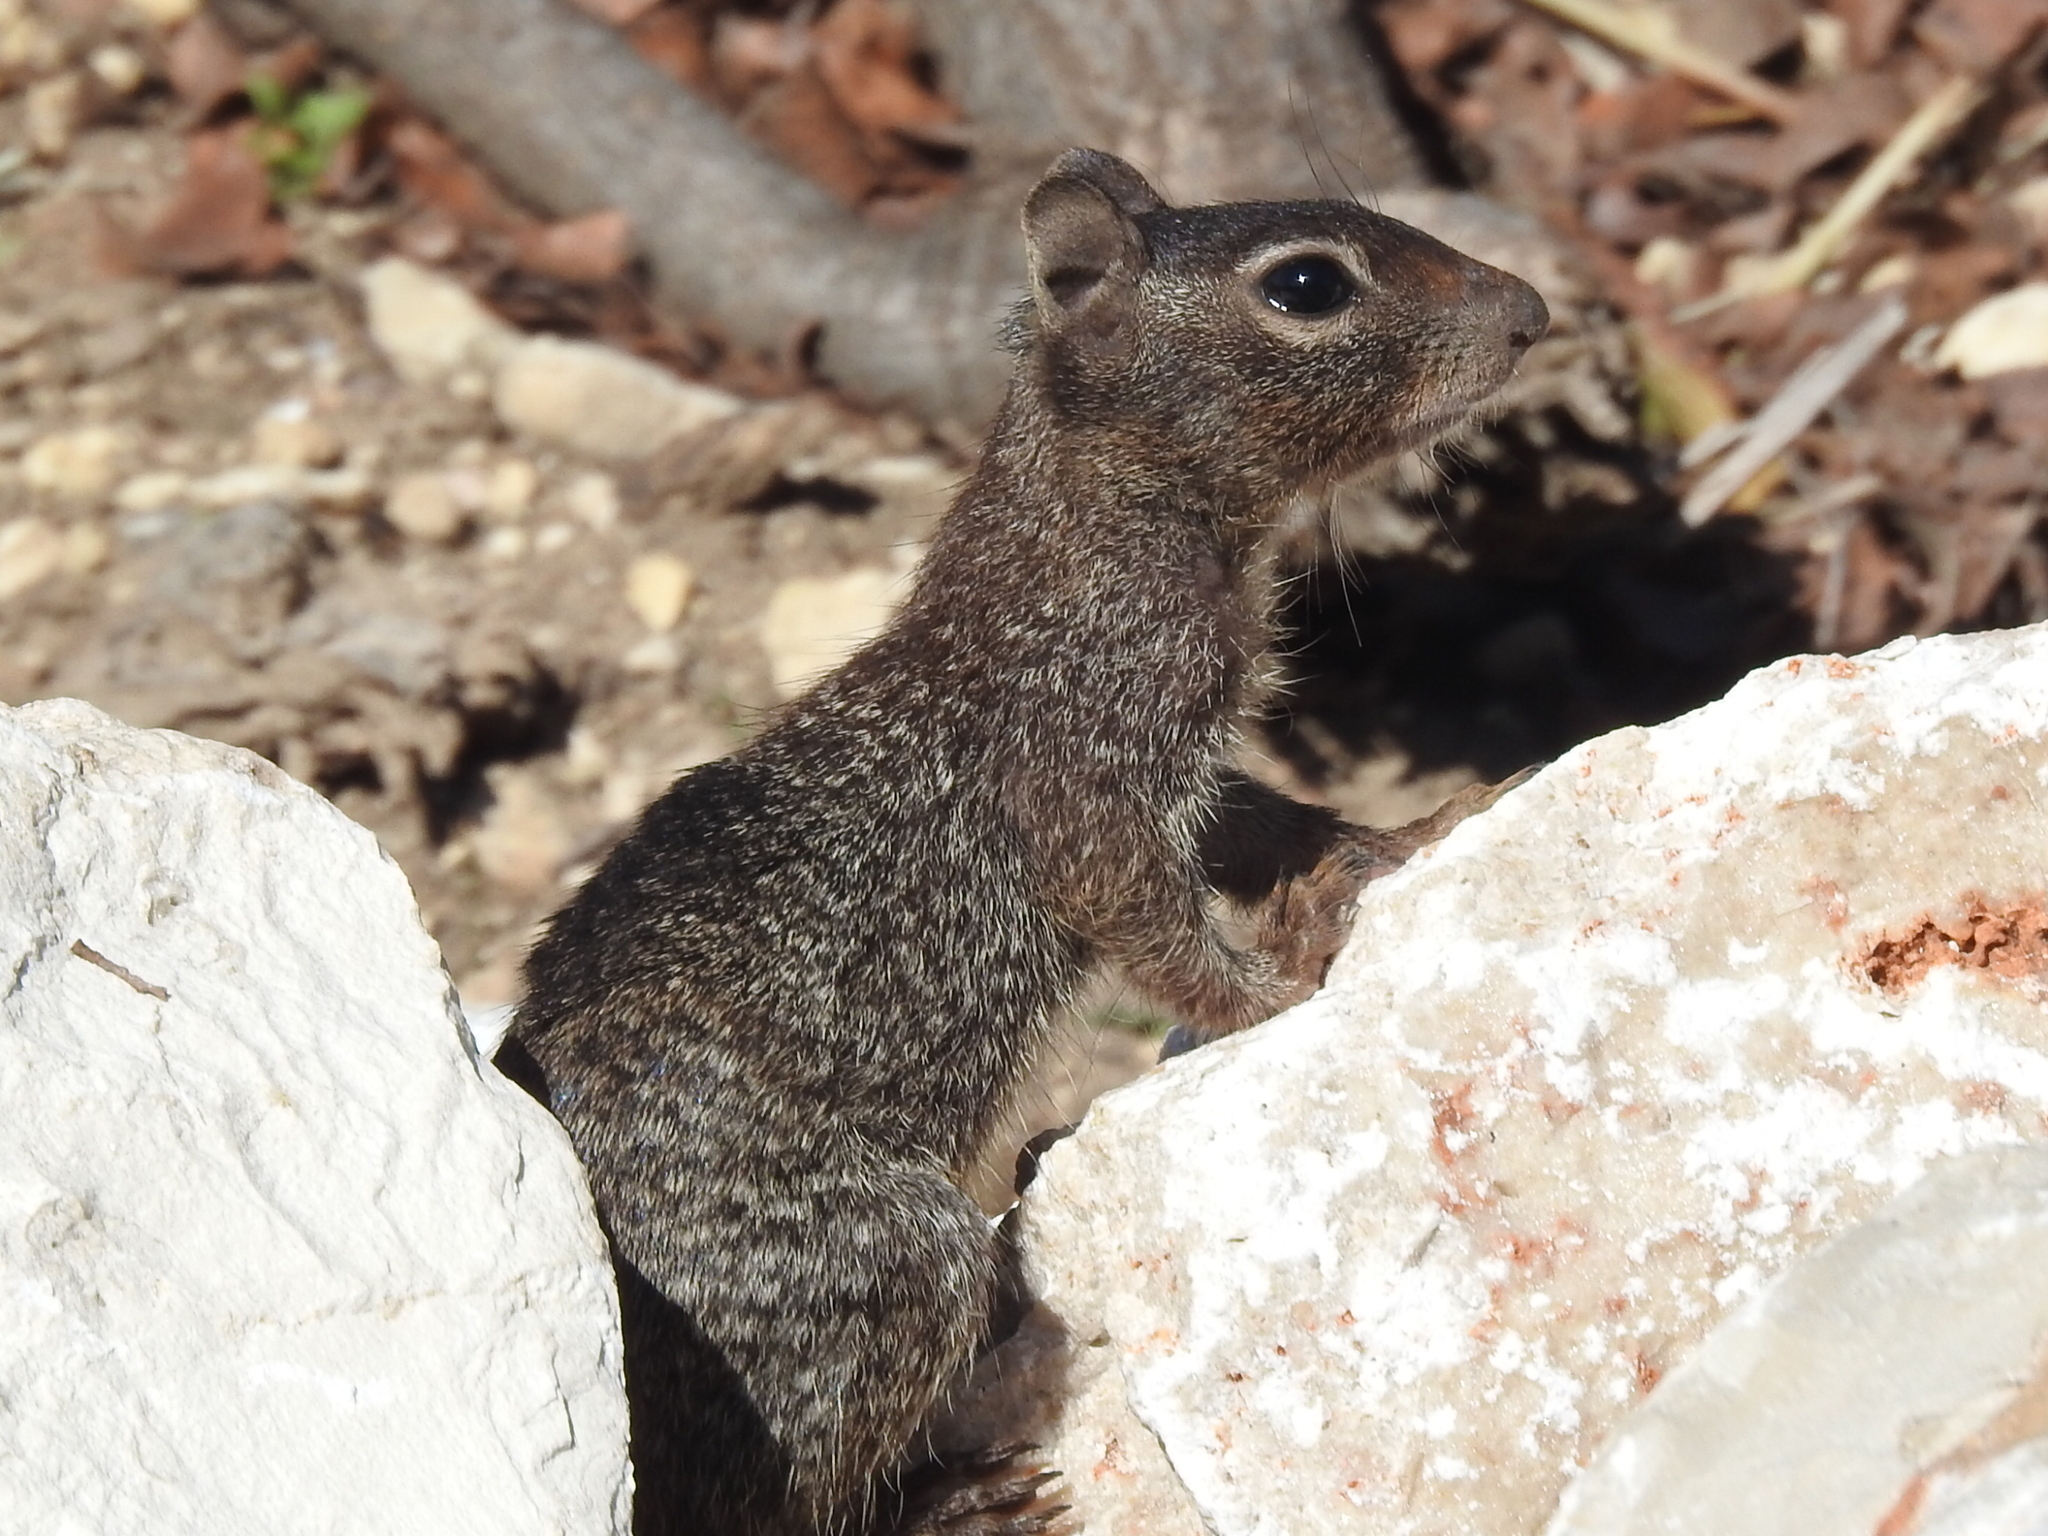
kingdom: Animalia
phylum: Chordata
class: Mammalia
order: Rodentia
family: Sciuridae
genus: Otospermophilus
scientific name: Otospermophilus variegatus
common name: Rock squirrel
